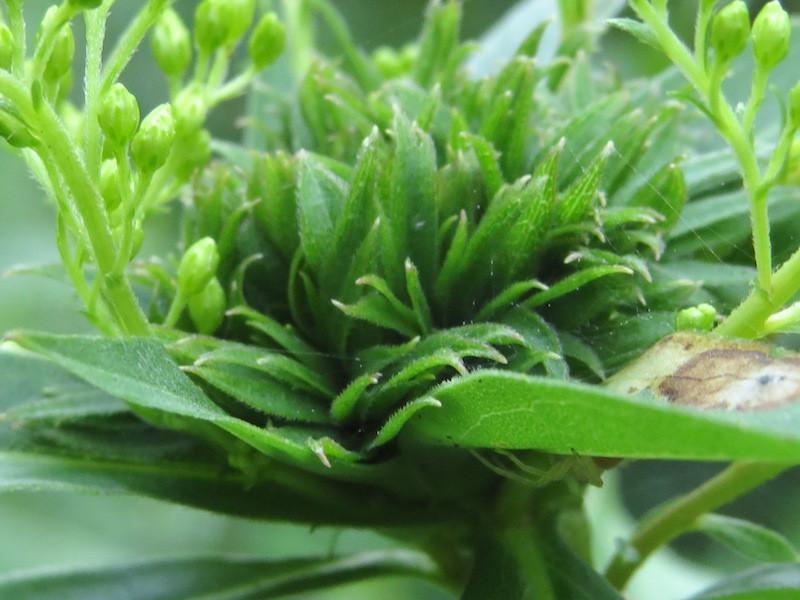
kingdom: Animalia
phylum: Arthropoda
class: Insecta
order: Diptera
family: Cecidomyiidae
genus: Rhopalomyia
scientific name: Rhopalomyia capitata
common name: Giant goldenrod bunch gall midge
